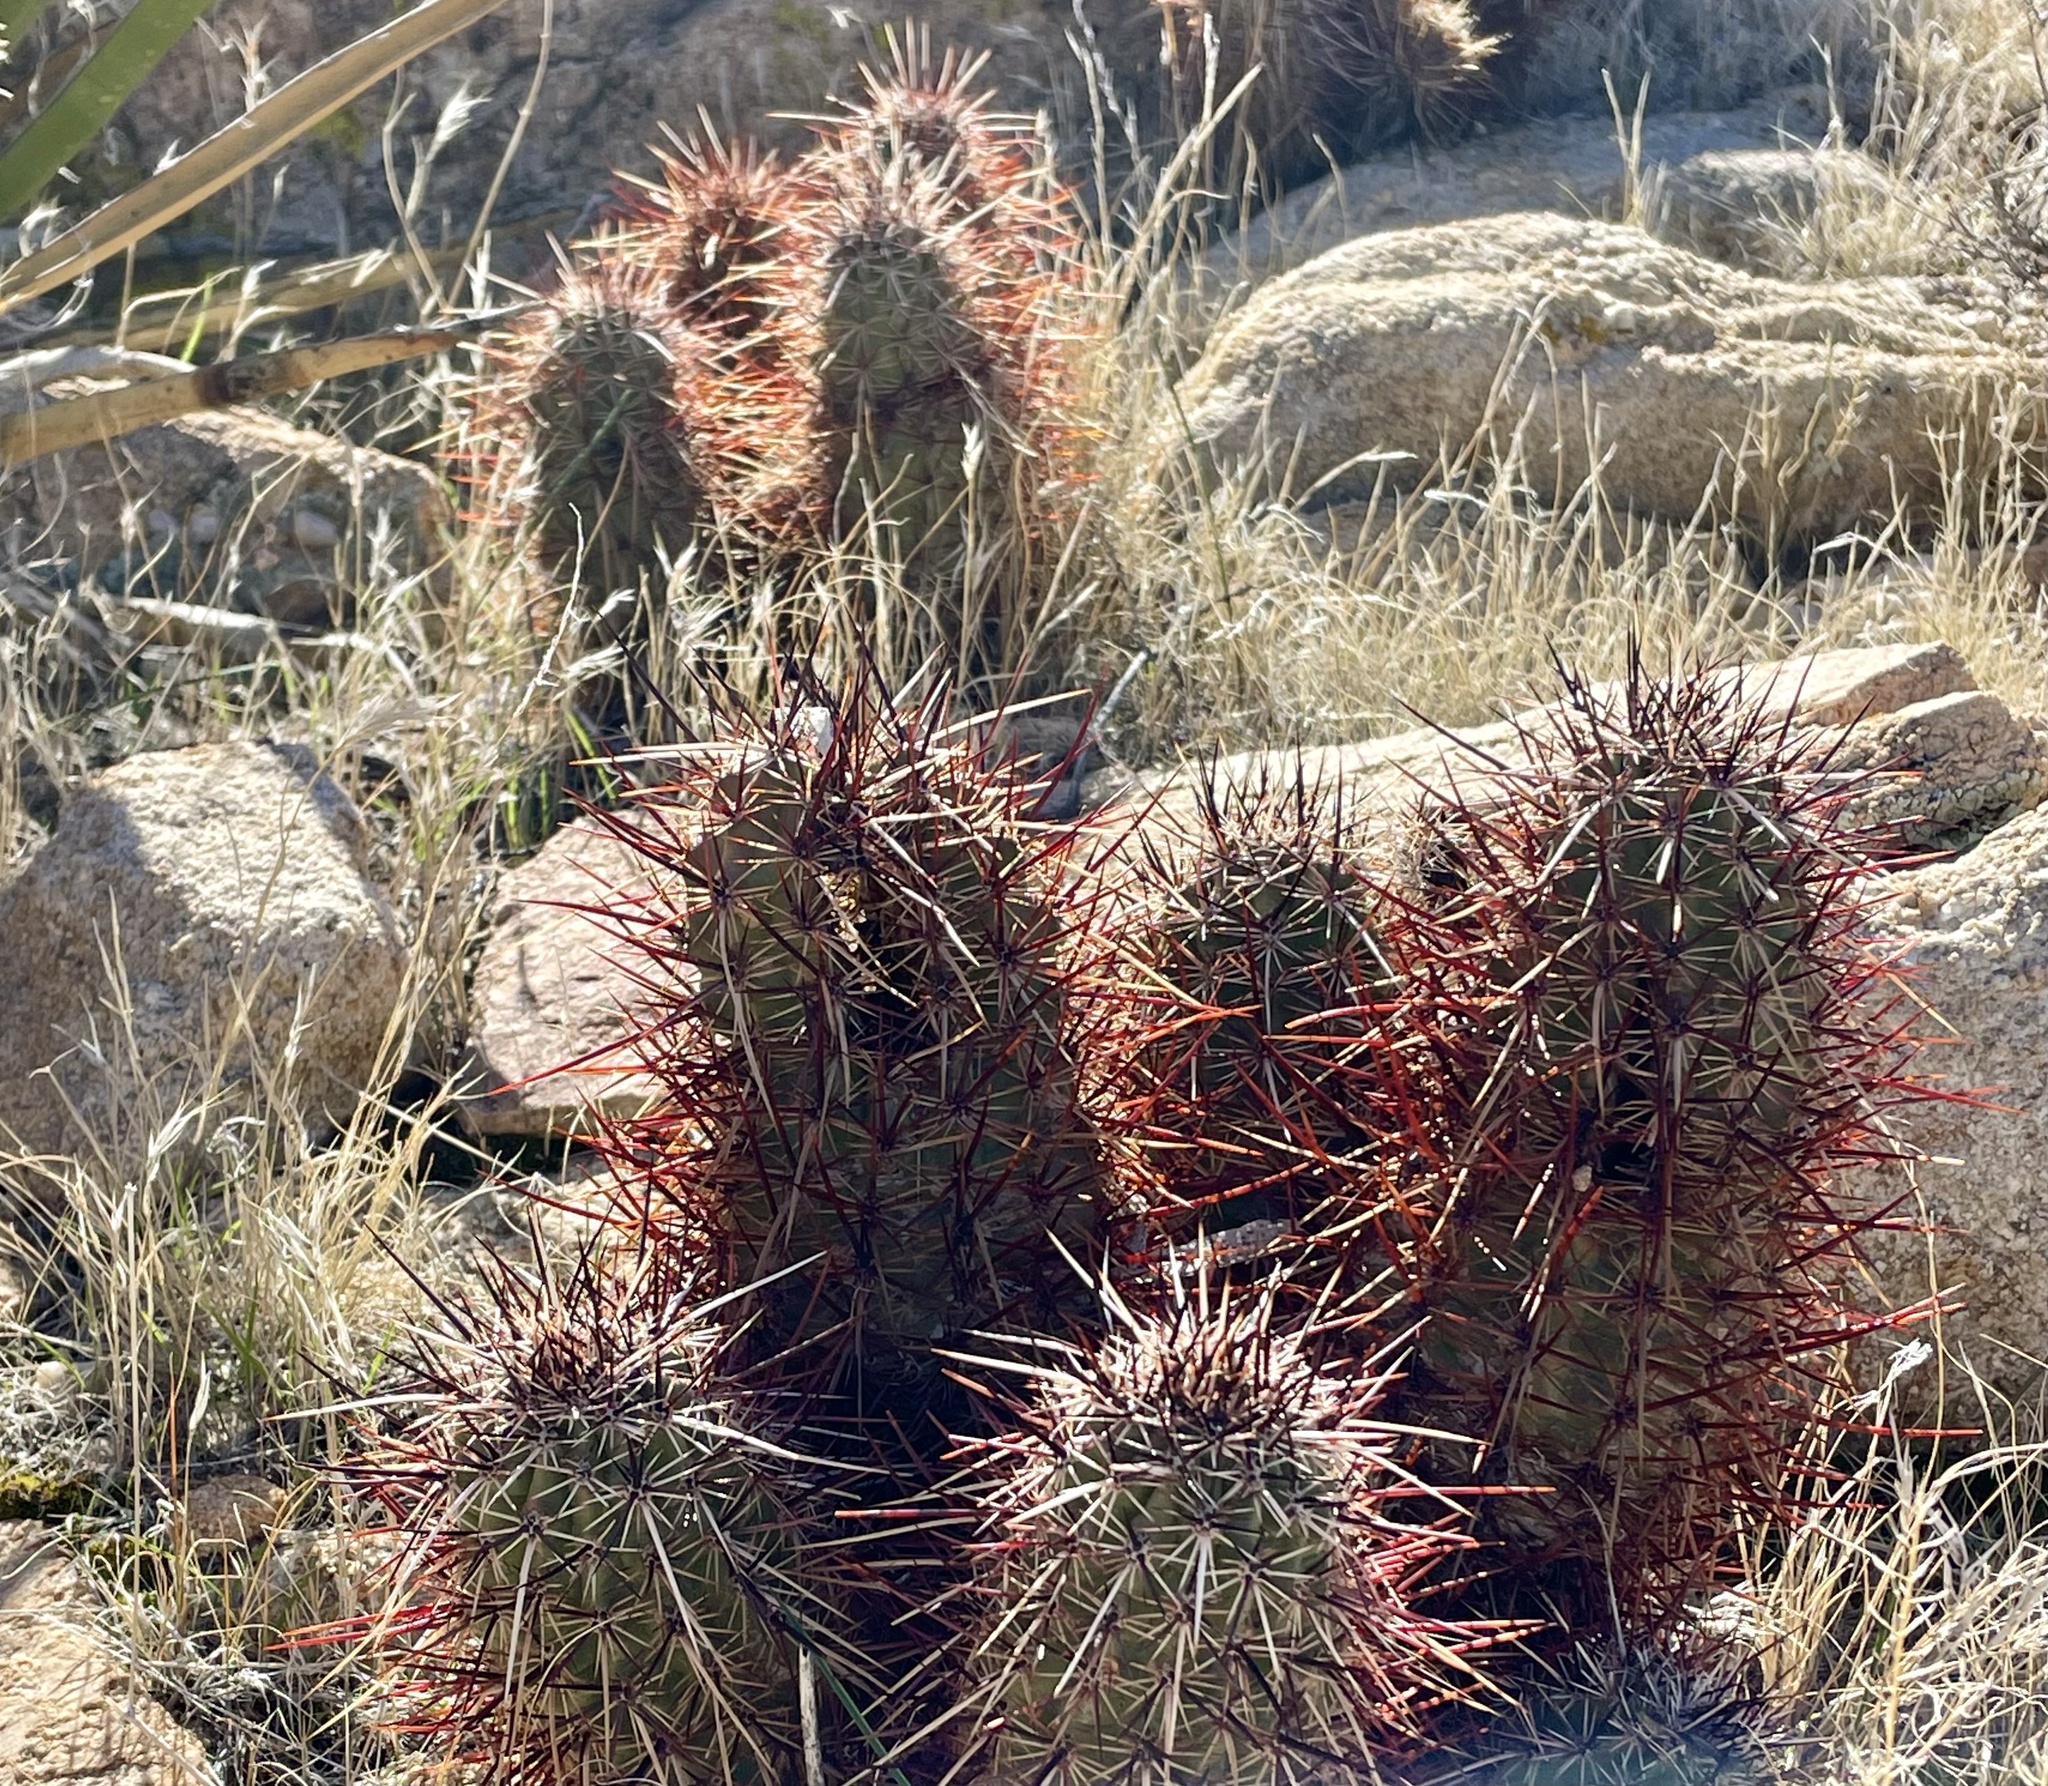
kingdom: Plantae
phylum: Tracheophyta
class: Magnoliopsida
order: Caryophyllales
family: Cactaceae
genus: Echinocereus
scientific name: Echinocereus engelmannii
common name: Engelmann's hedgehog cactus
